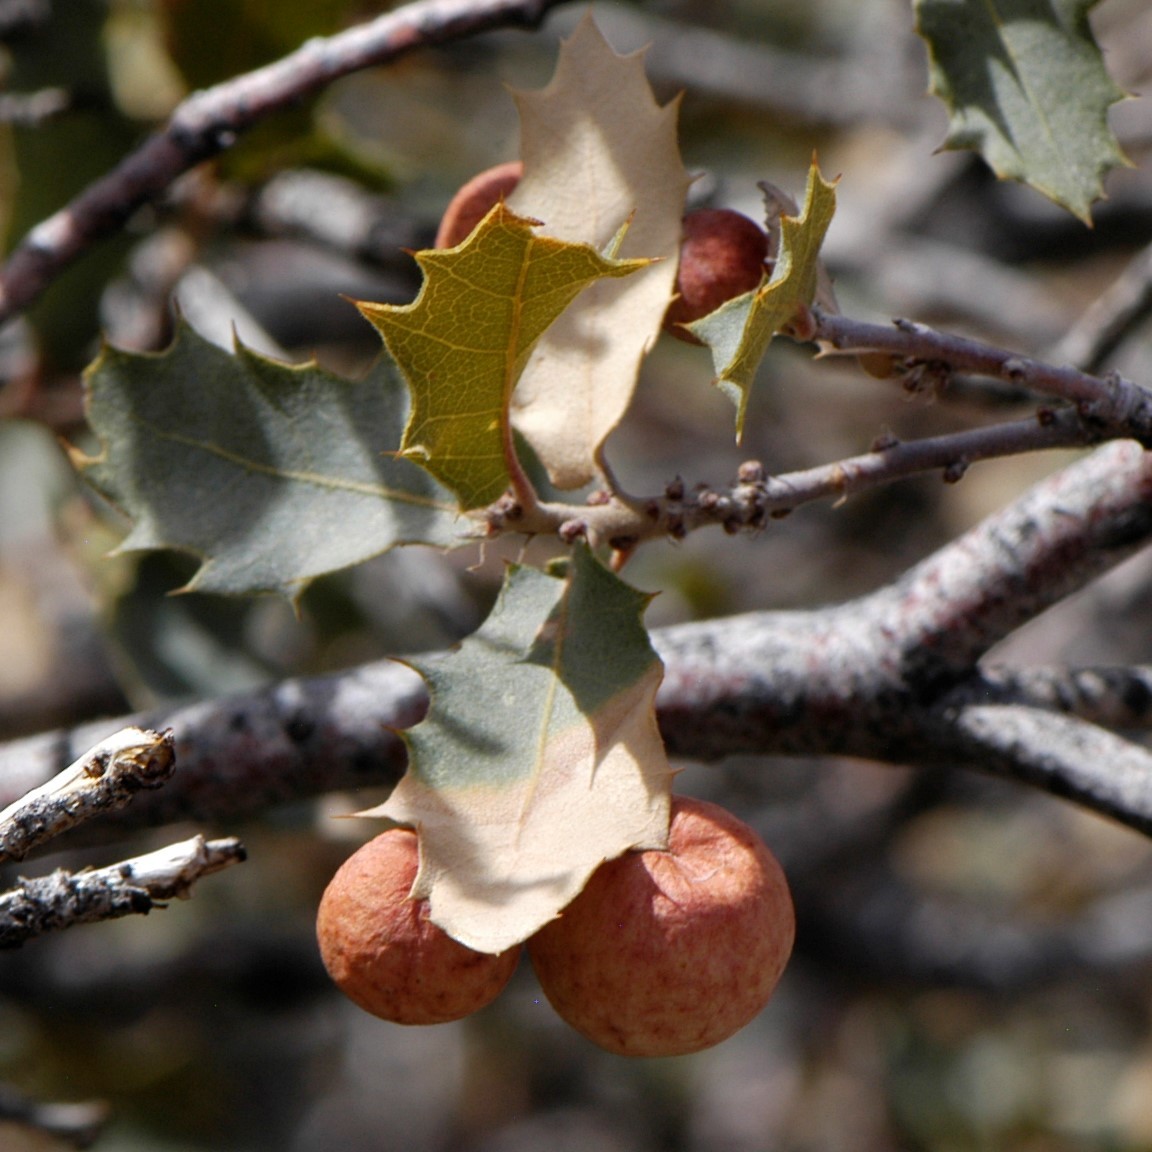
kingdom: Animalia
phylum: Arthropoda
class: Insecta
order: Hymenoptera
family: Cynipidae
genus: Atrusca
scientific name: Atrusca
